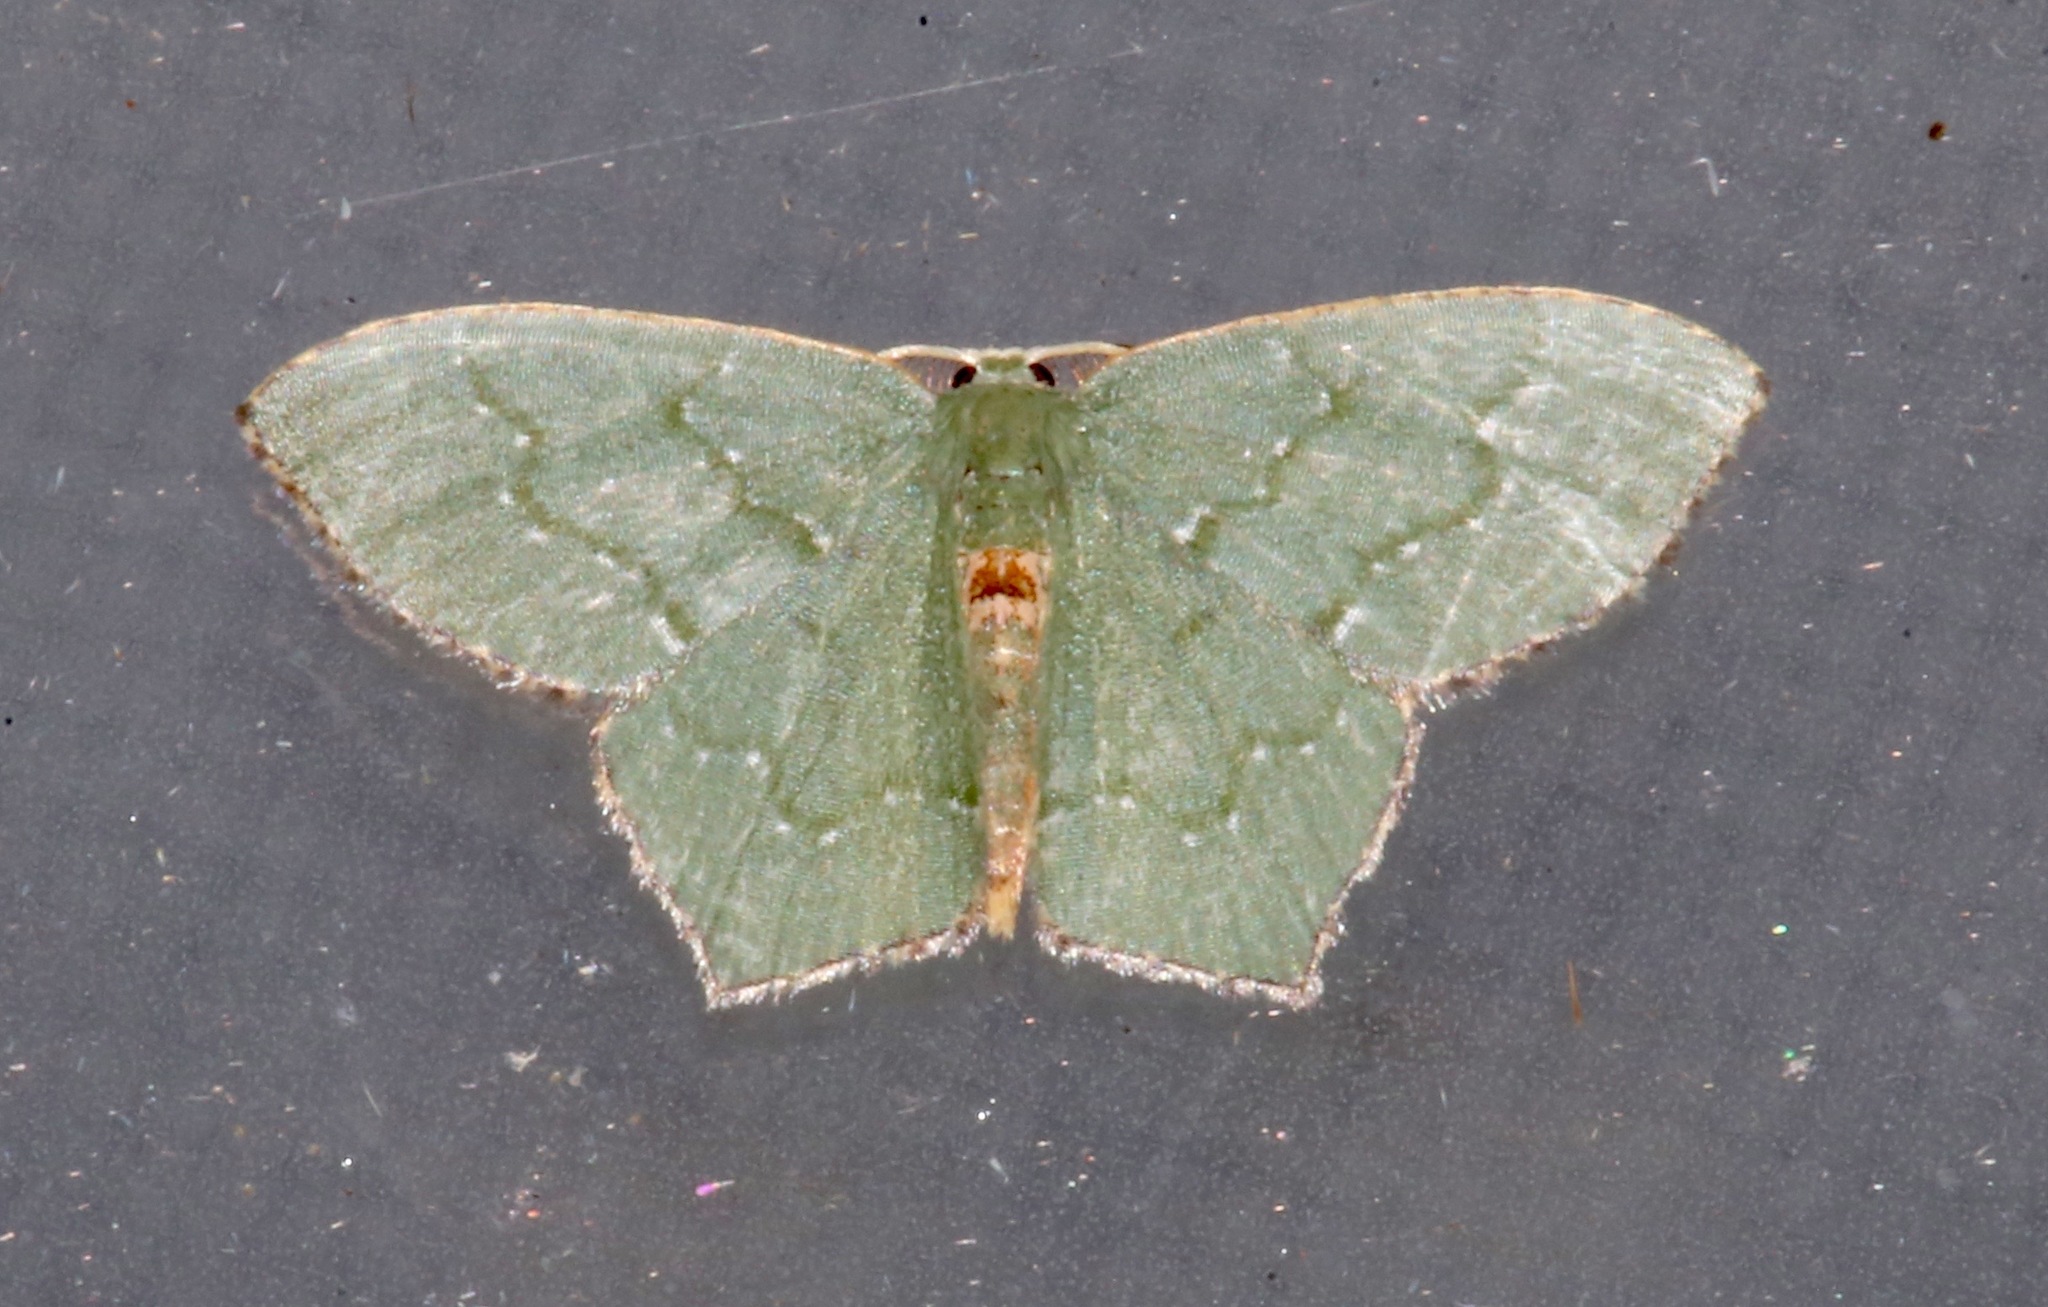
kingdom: Animalia
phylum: Arthropoda
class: Insecta
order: Lepidoptera
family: Geometridae
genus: Chloropteryx
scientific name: Chloropteryx tepperaria
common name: Angle winged emerald moth
